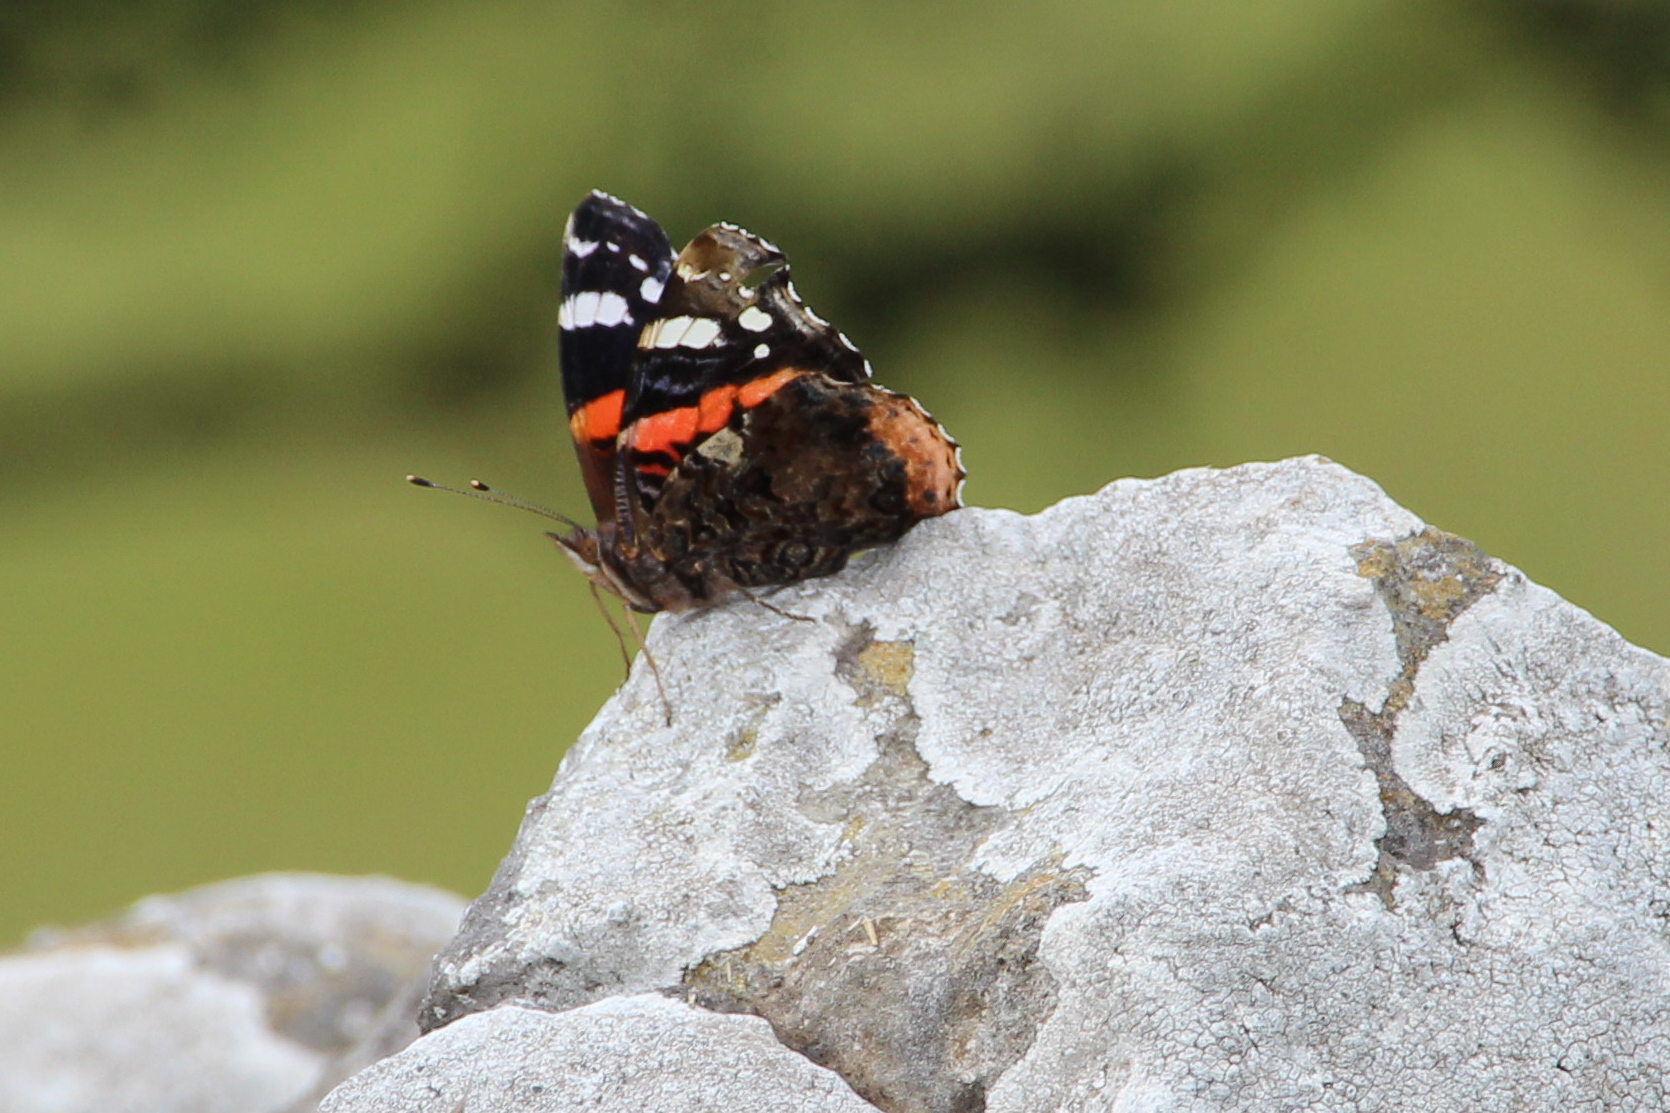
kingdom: Animalia
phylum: Arthropoda
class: Insecta
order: Lepidoptera
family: Nymphalidae
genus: Vanessa
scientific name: Vanessa atalanta
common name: Red admiral
